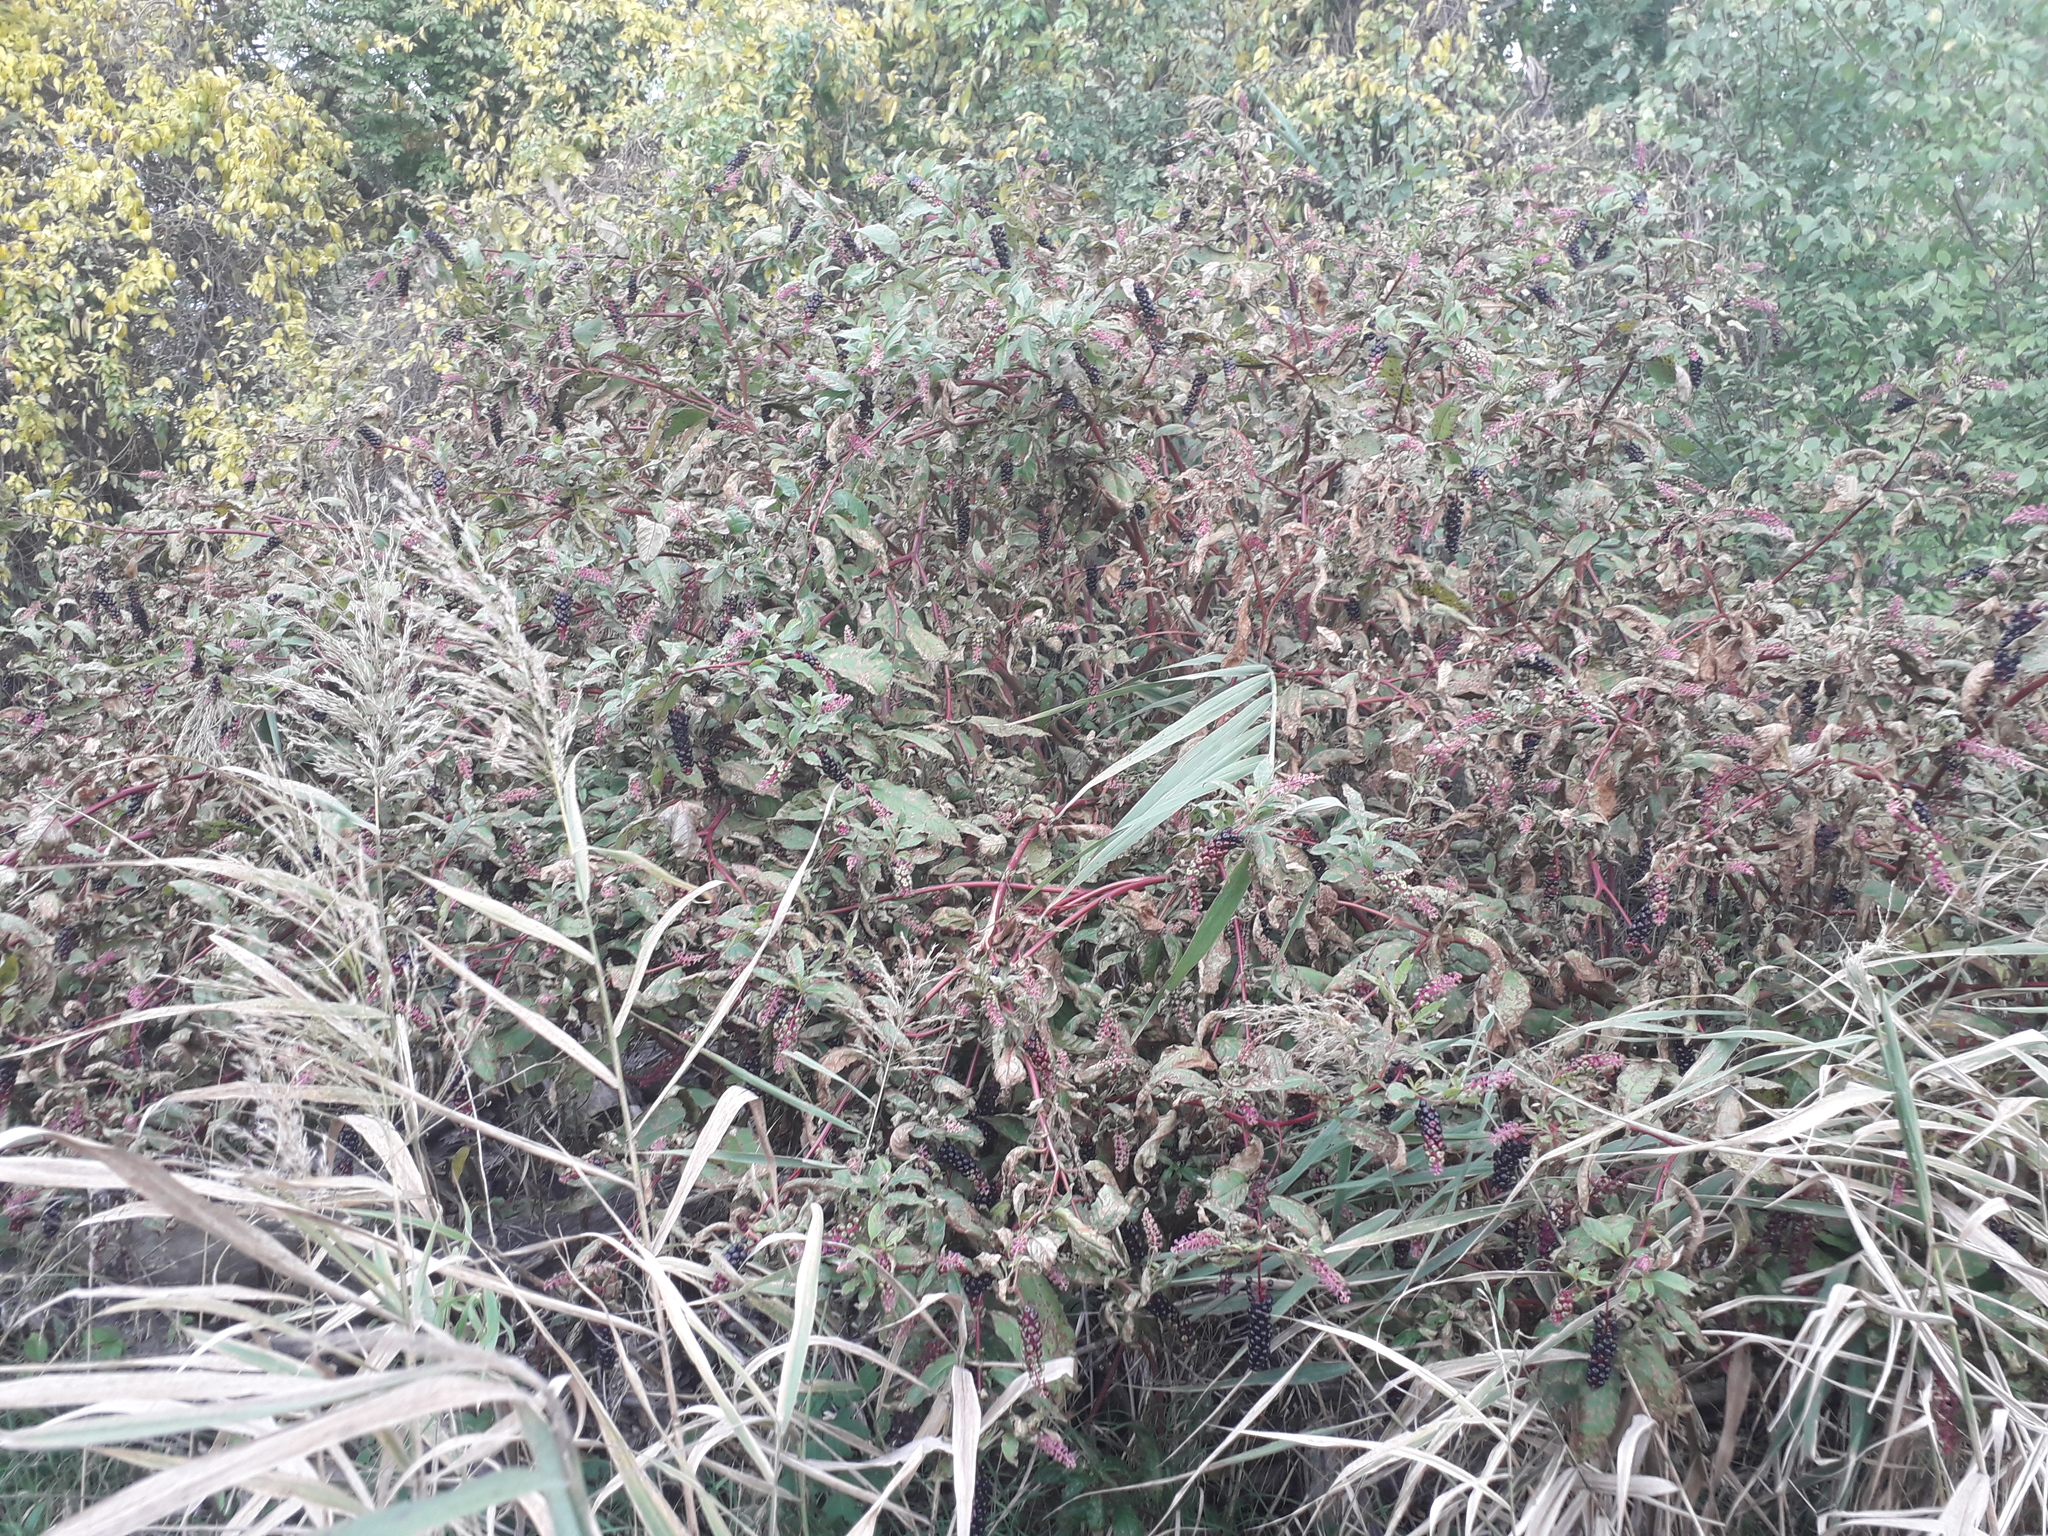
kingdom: Plantae
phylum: Tracheophyta
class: Magnoliopsida
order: Caryophyllales
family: Phytolaccaceae
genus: Phytolacca
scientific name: Phytolacca americana
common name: American pokeweed
